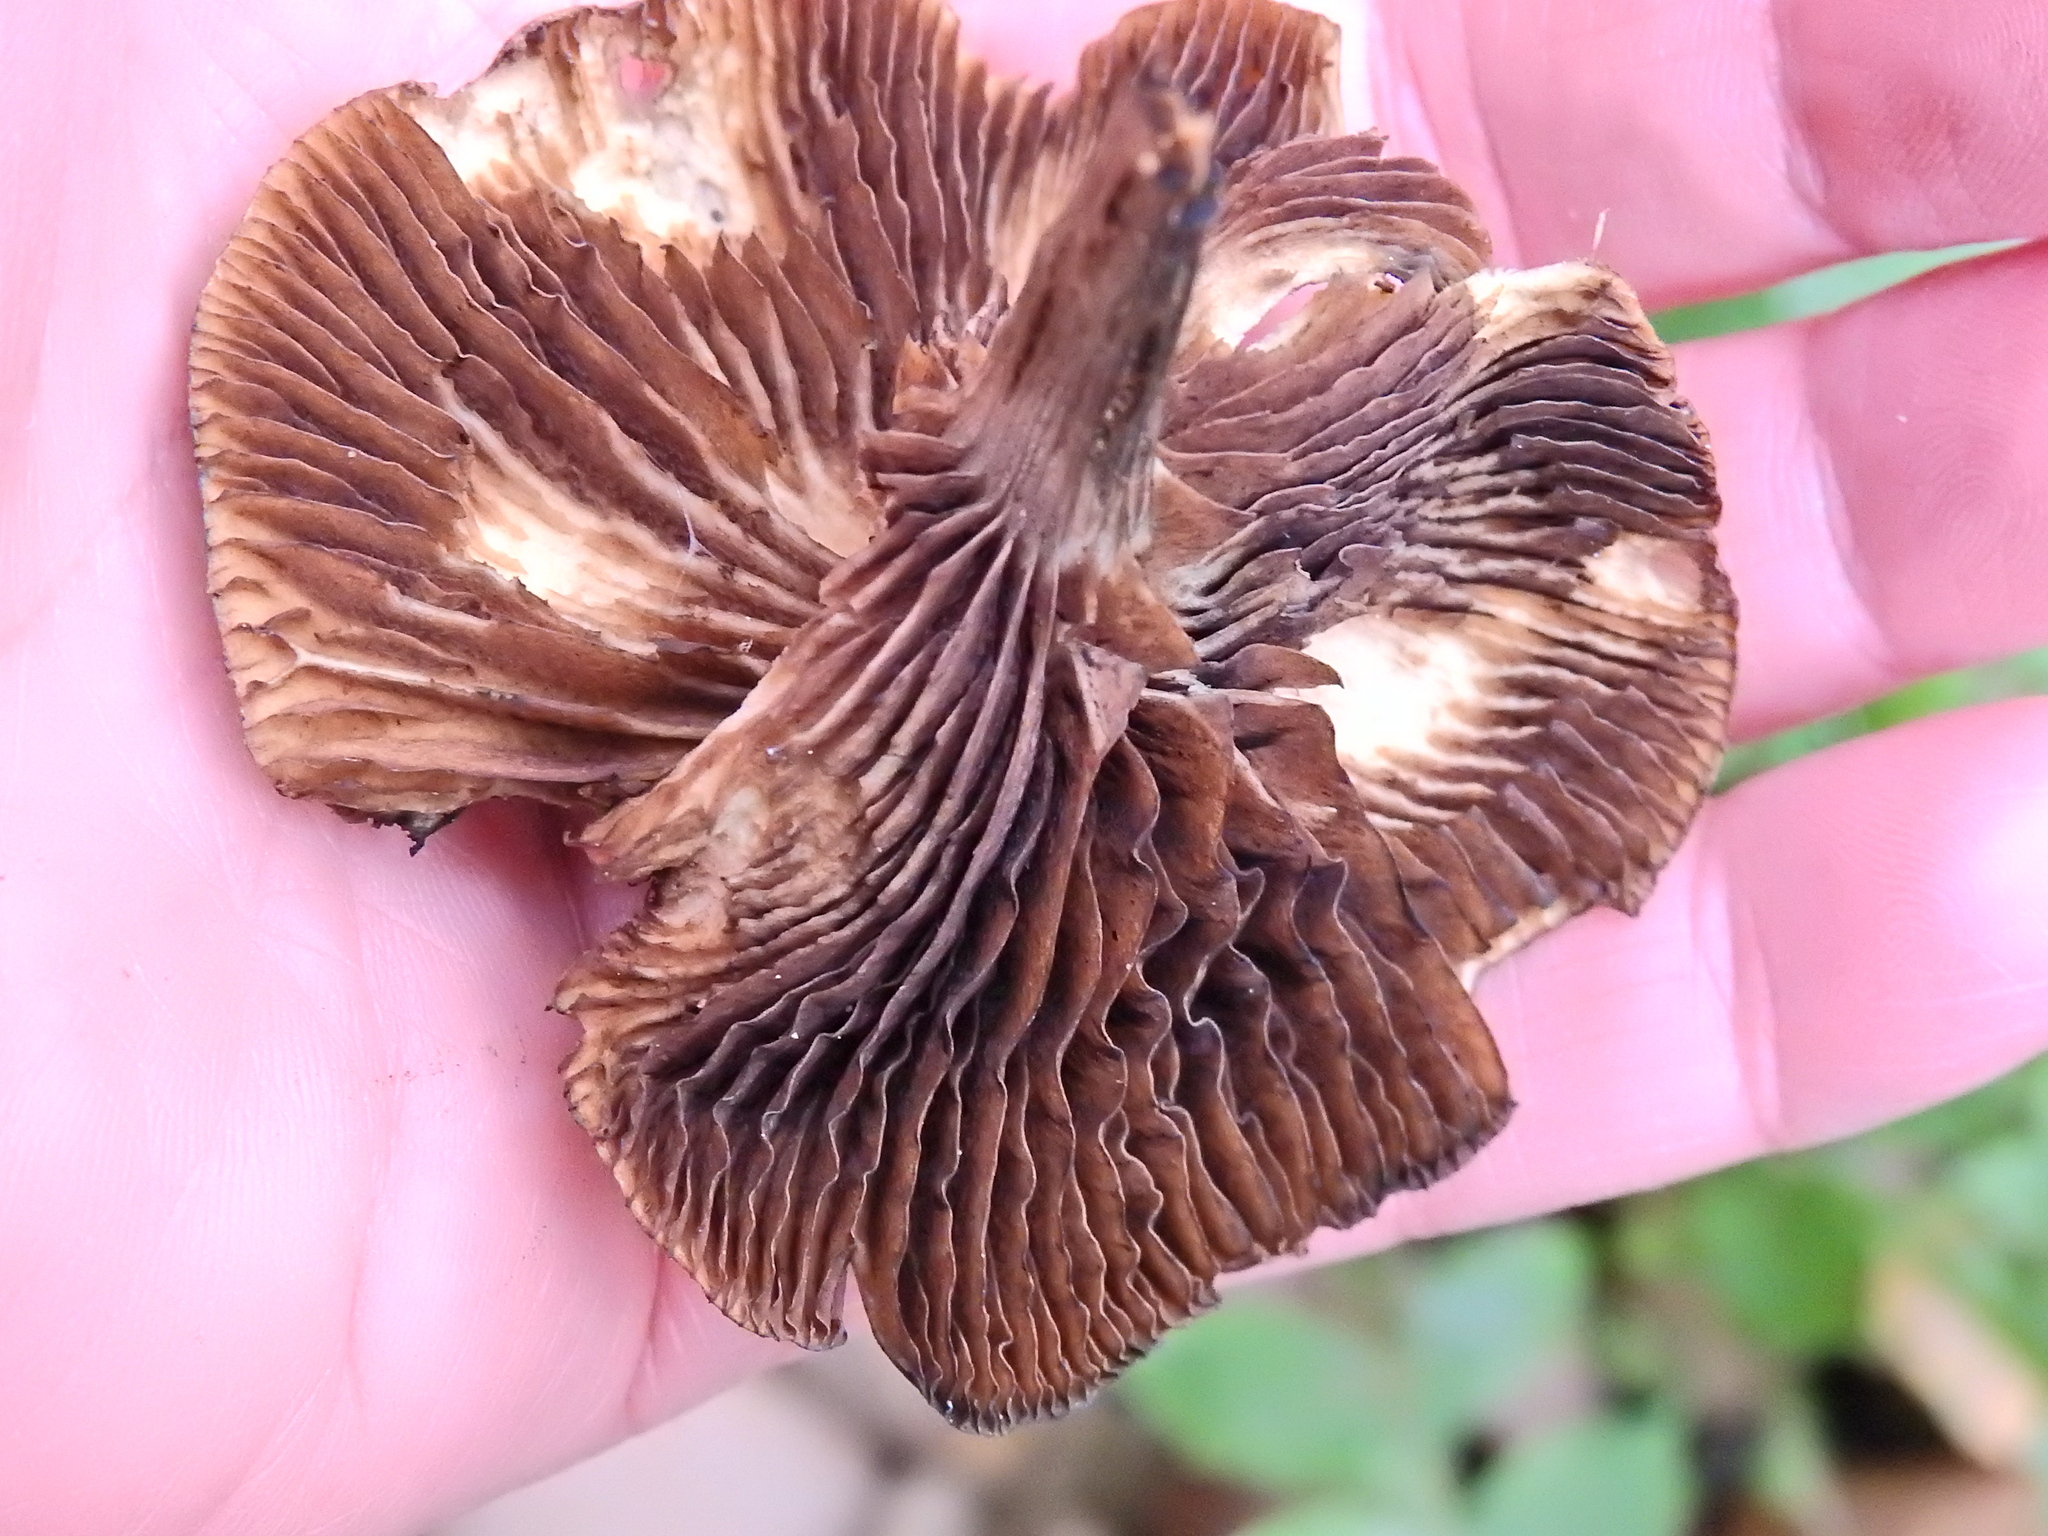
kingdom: Fungi
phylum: Basidiomycota
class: Agaricomycetes
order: Agaricales
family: Hymenogastraceae
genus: Psilocybe
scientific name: Psilocybe cyanescens
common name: Blueleg brownie
